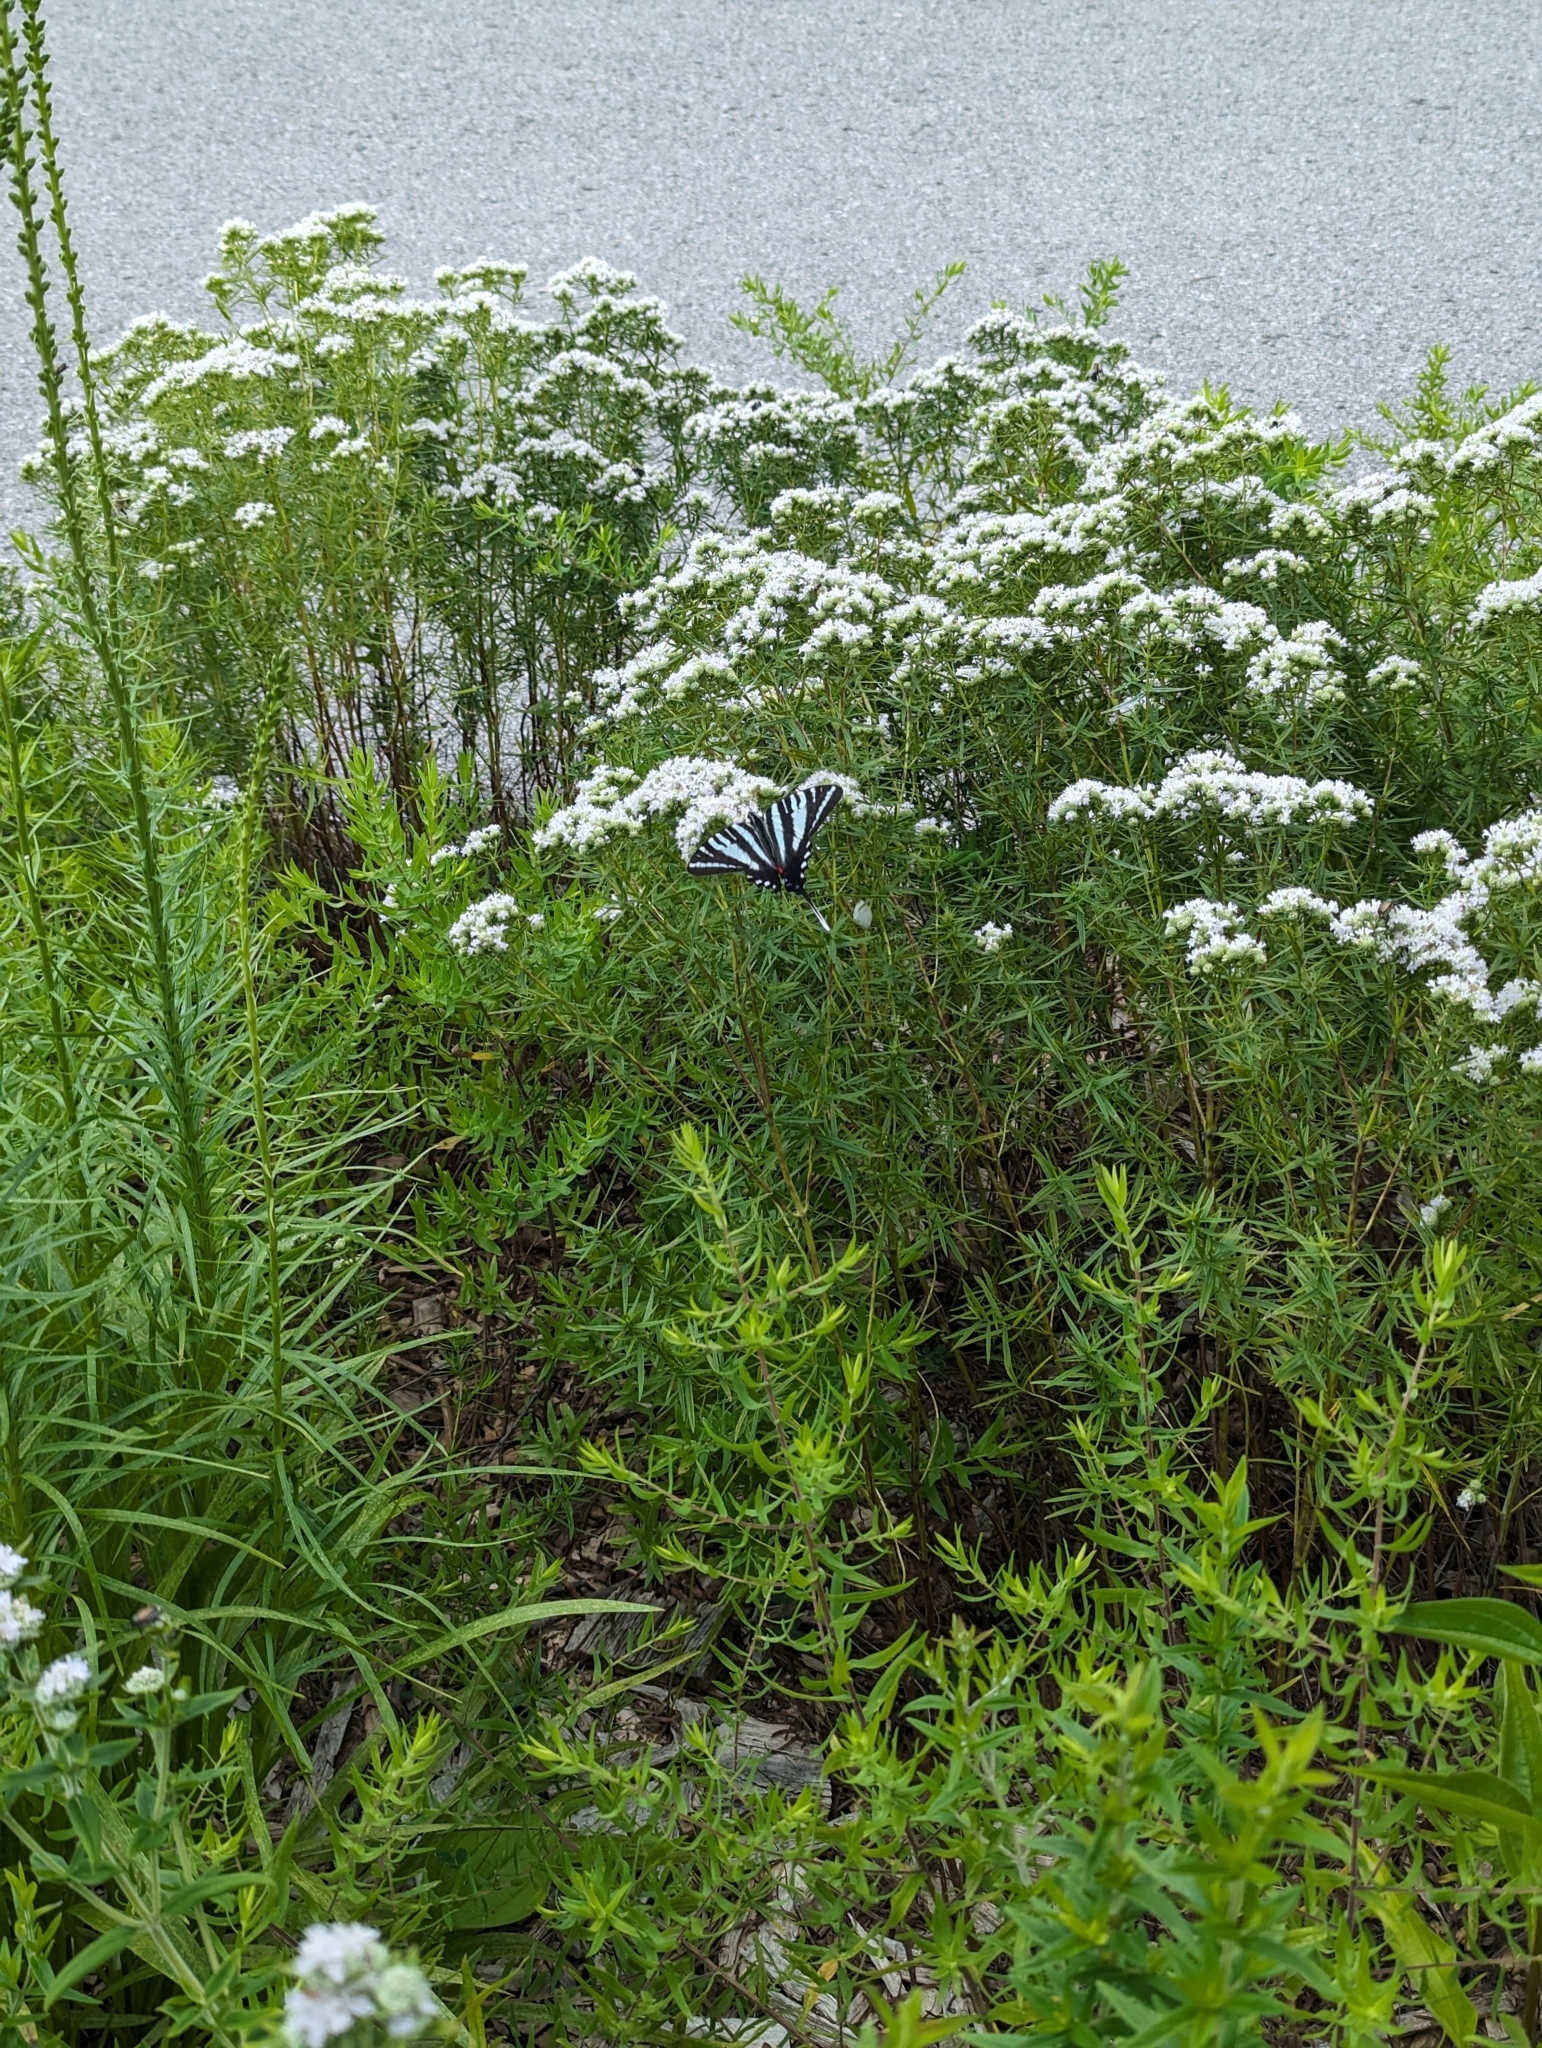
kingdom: Animalia
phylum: Arthropoda
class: Insecta
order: Lepidoptera
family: Papilionidae
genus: Protographium
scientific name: Protographium marcellus
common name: Zebra swallowtail
